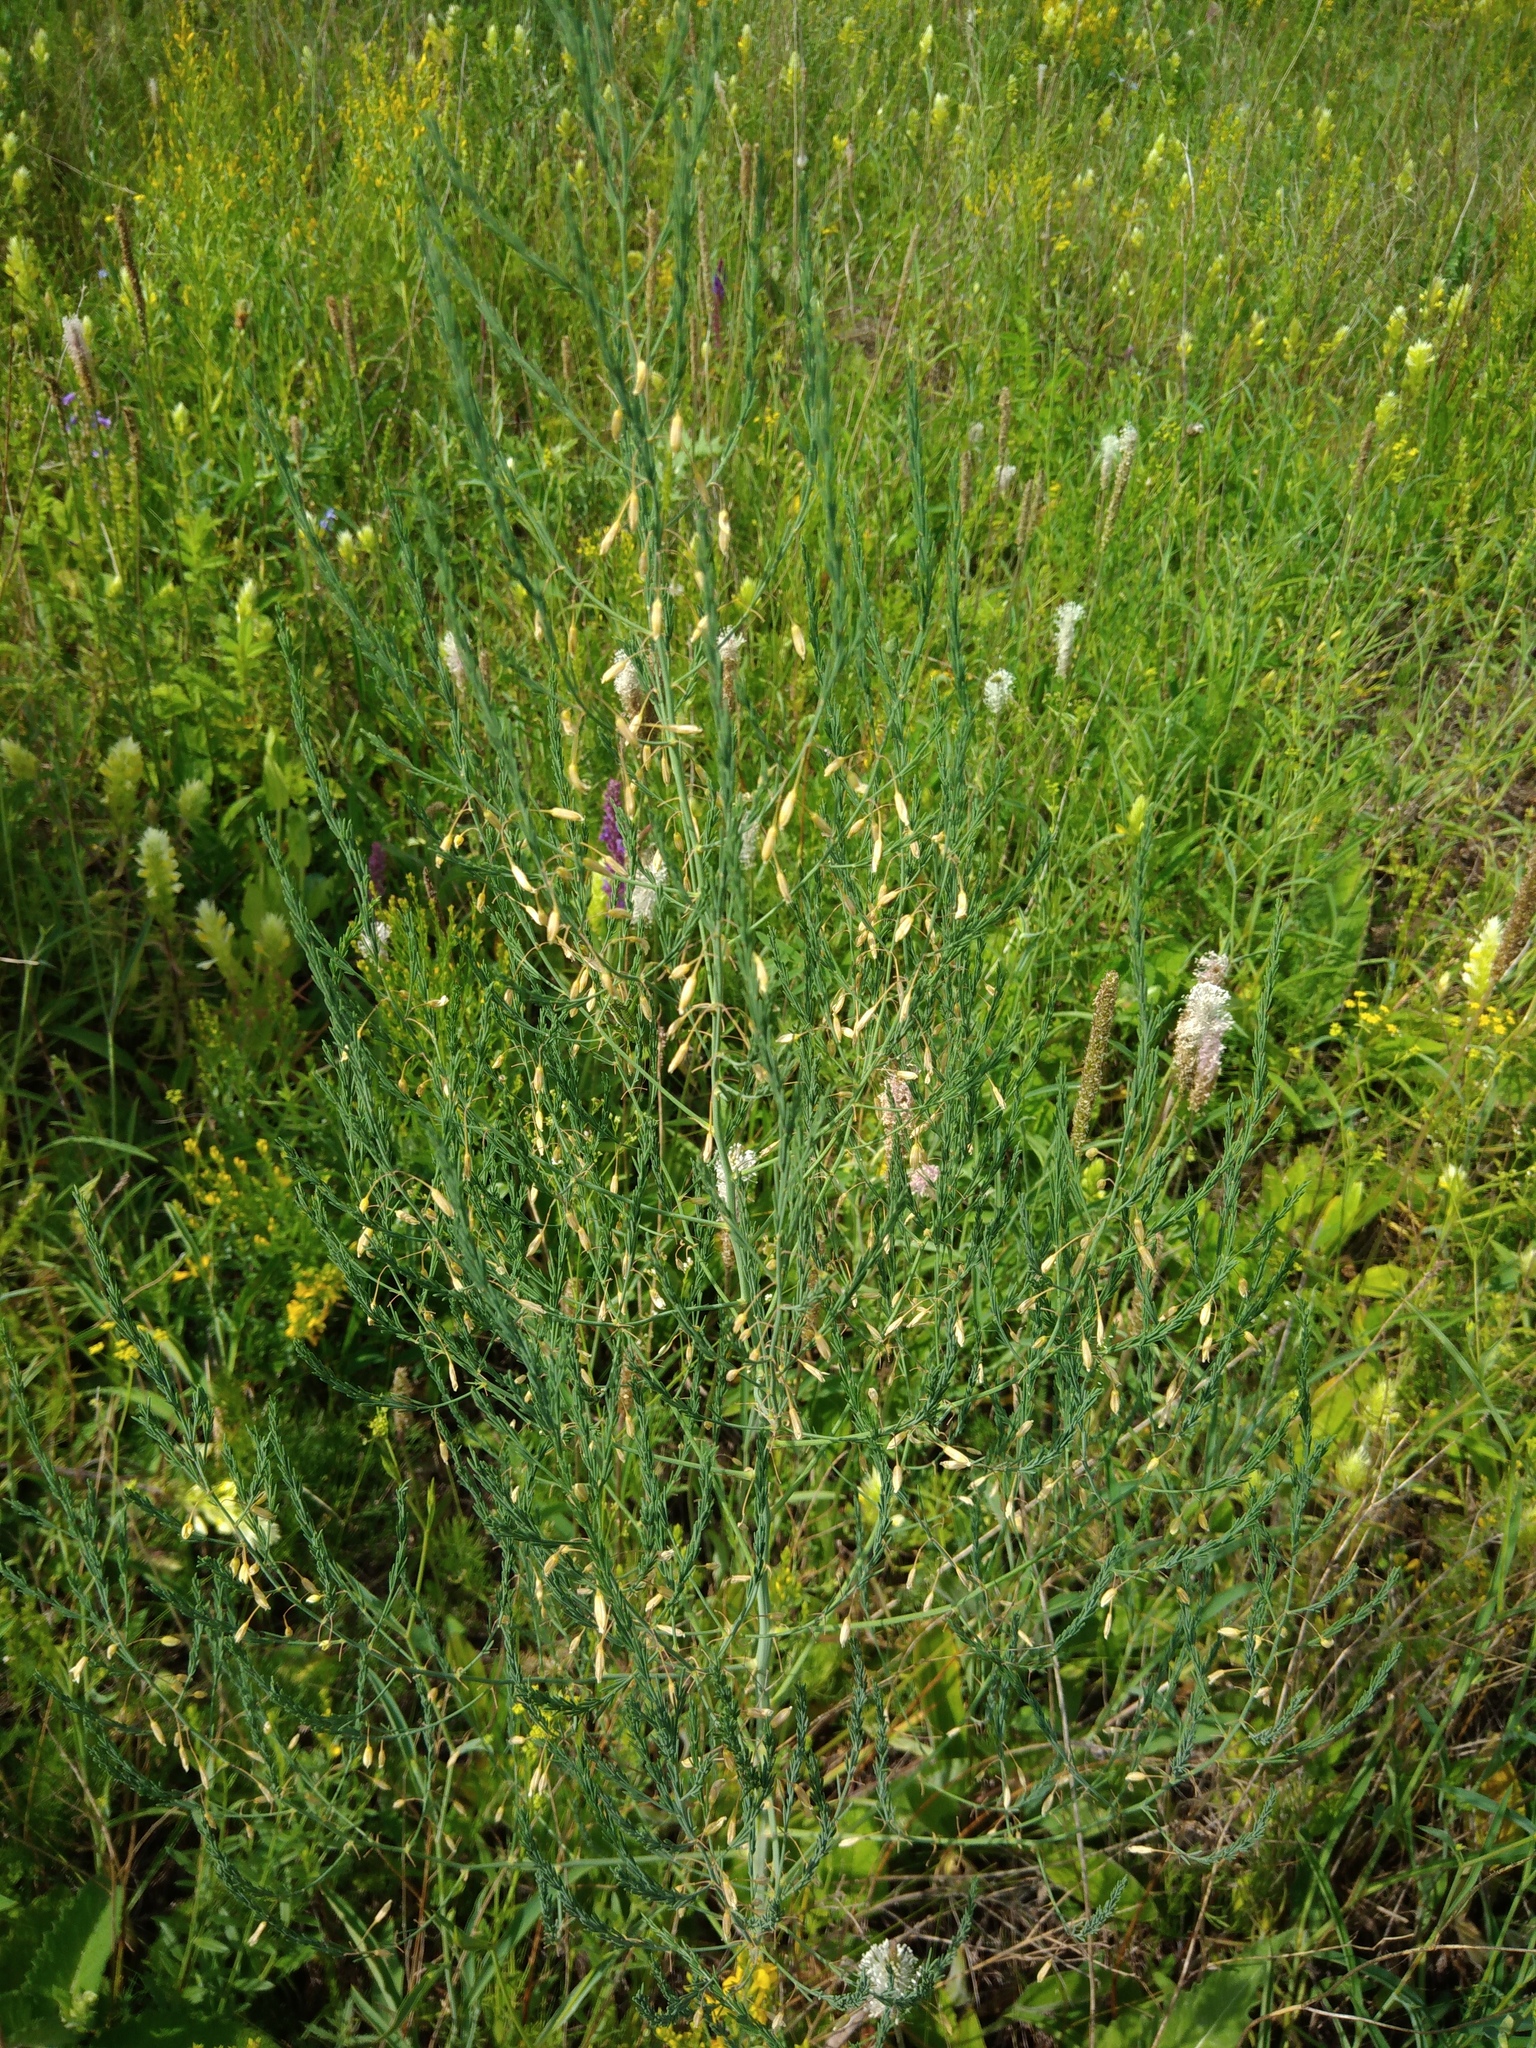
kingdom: Plantae
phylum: Tracheophyta
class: Liliopsida
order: Asparagales
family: Asparagaceae
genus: Asparagus
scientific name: Asparagus officinalis
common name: Garden asparagus
